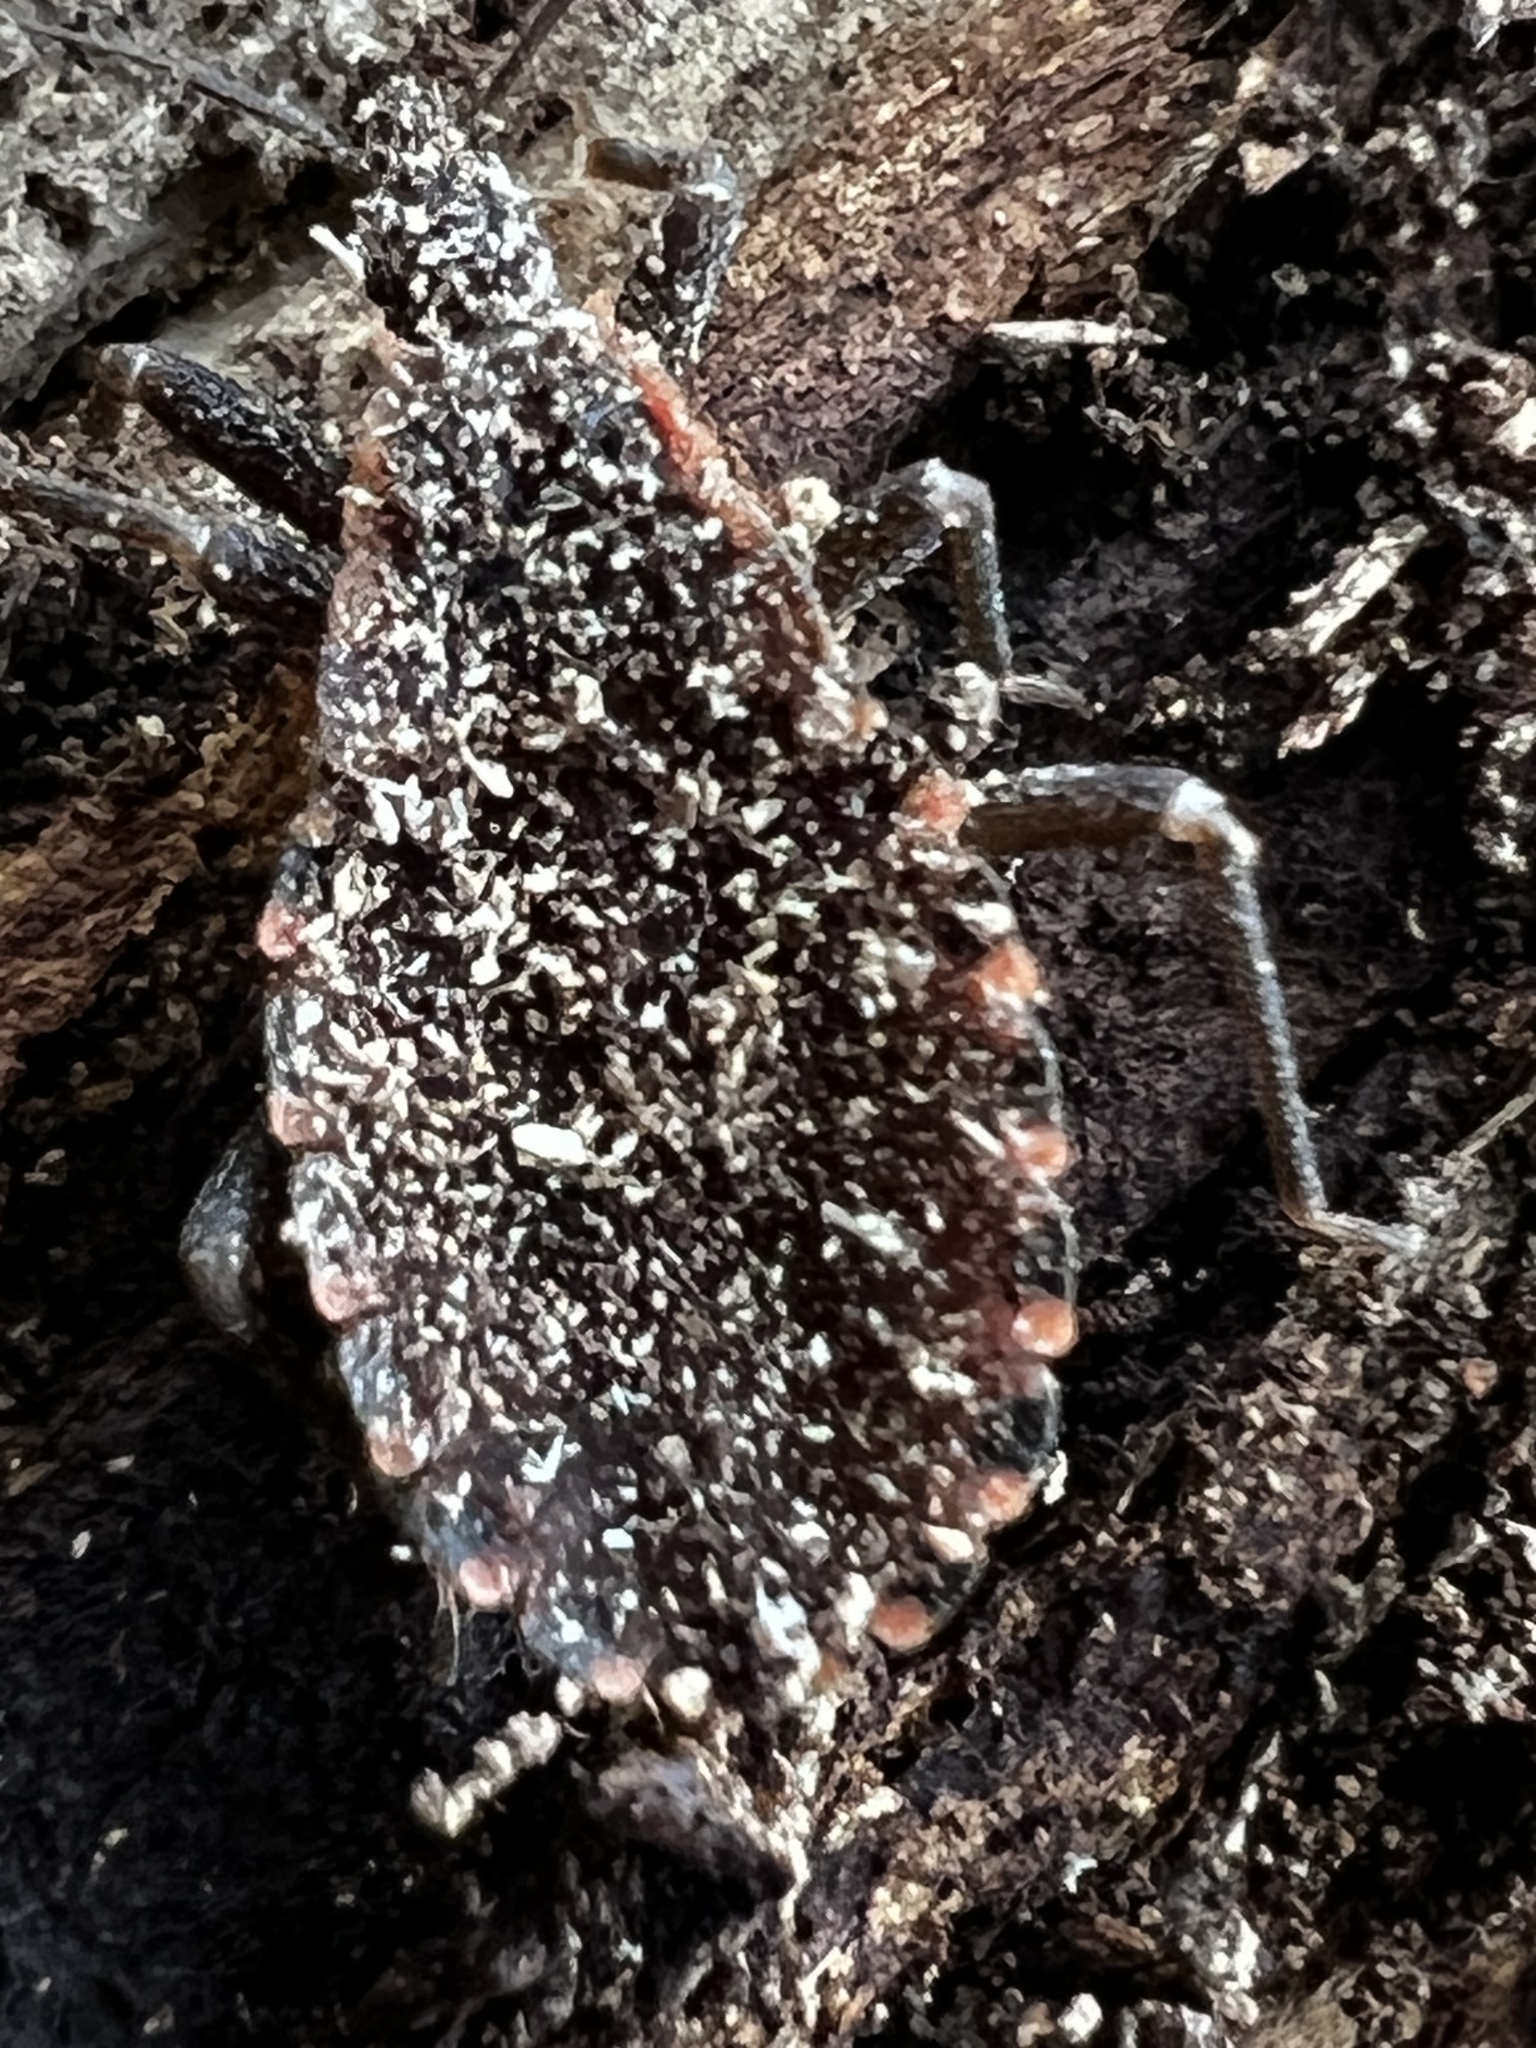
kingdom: Animalia
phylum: Arthropoda
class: Insecta
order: Hemiptera
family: Reduviidae
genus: Triatoma
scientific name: Triatoma sanguisuga
